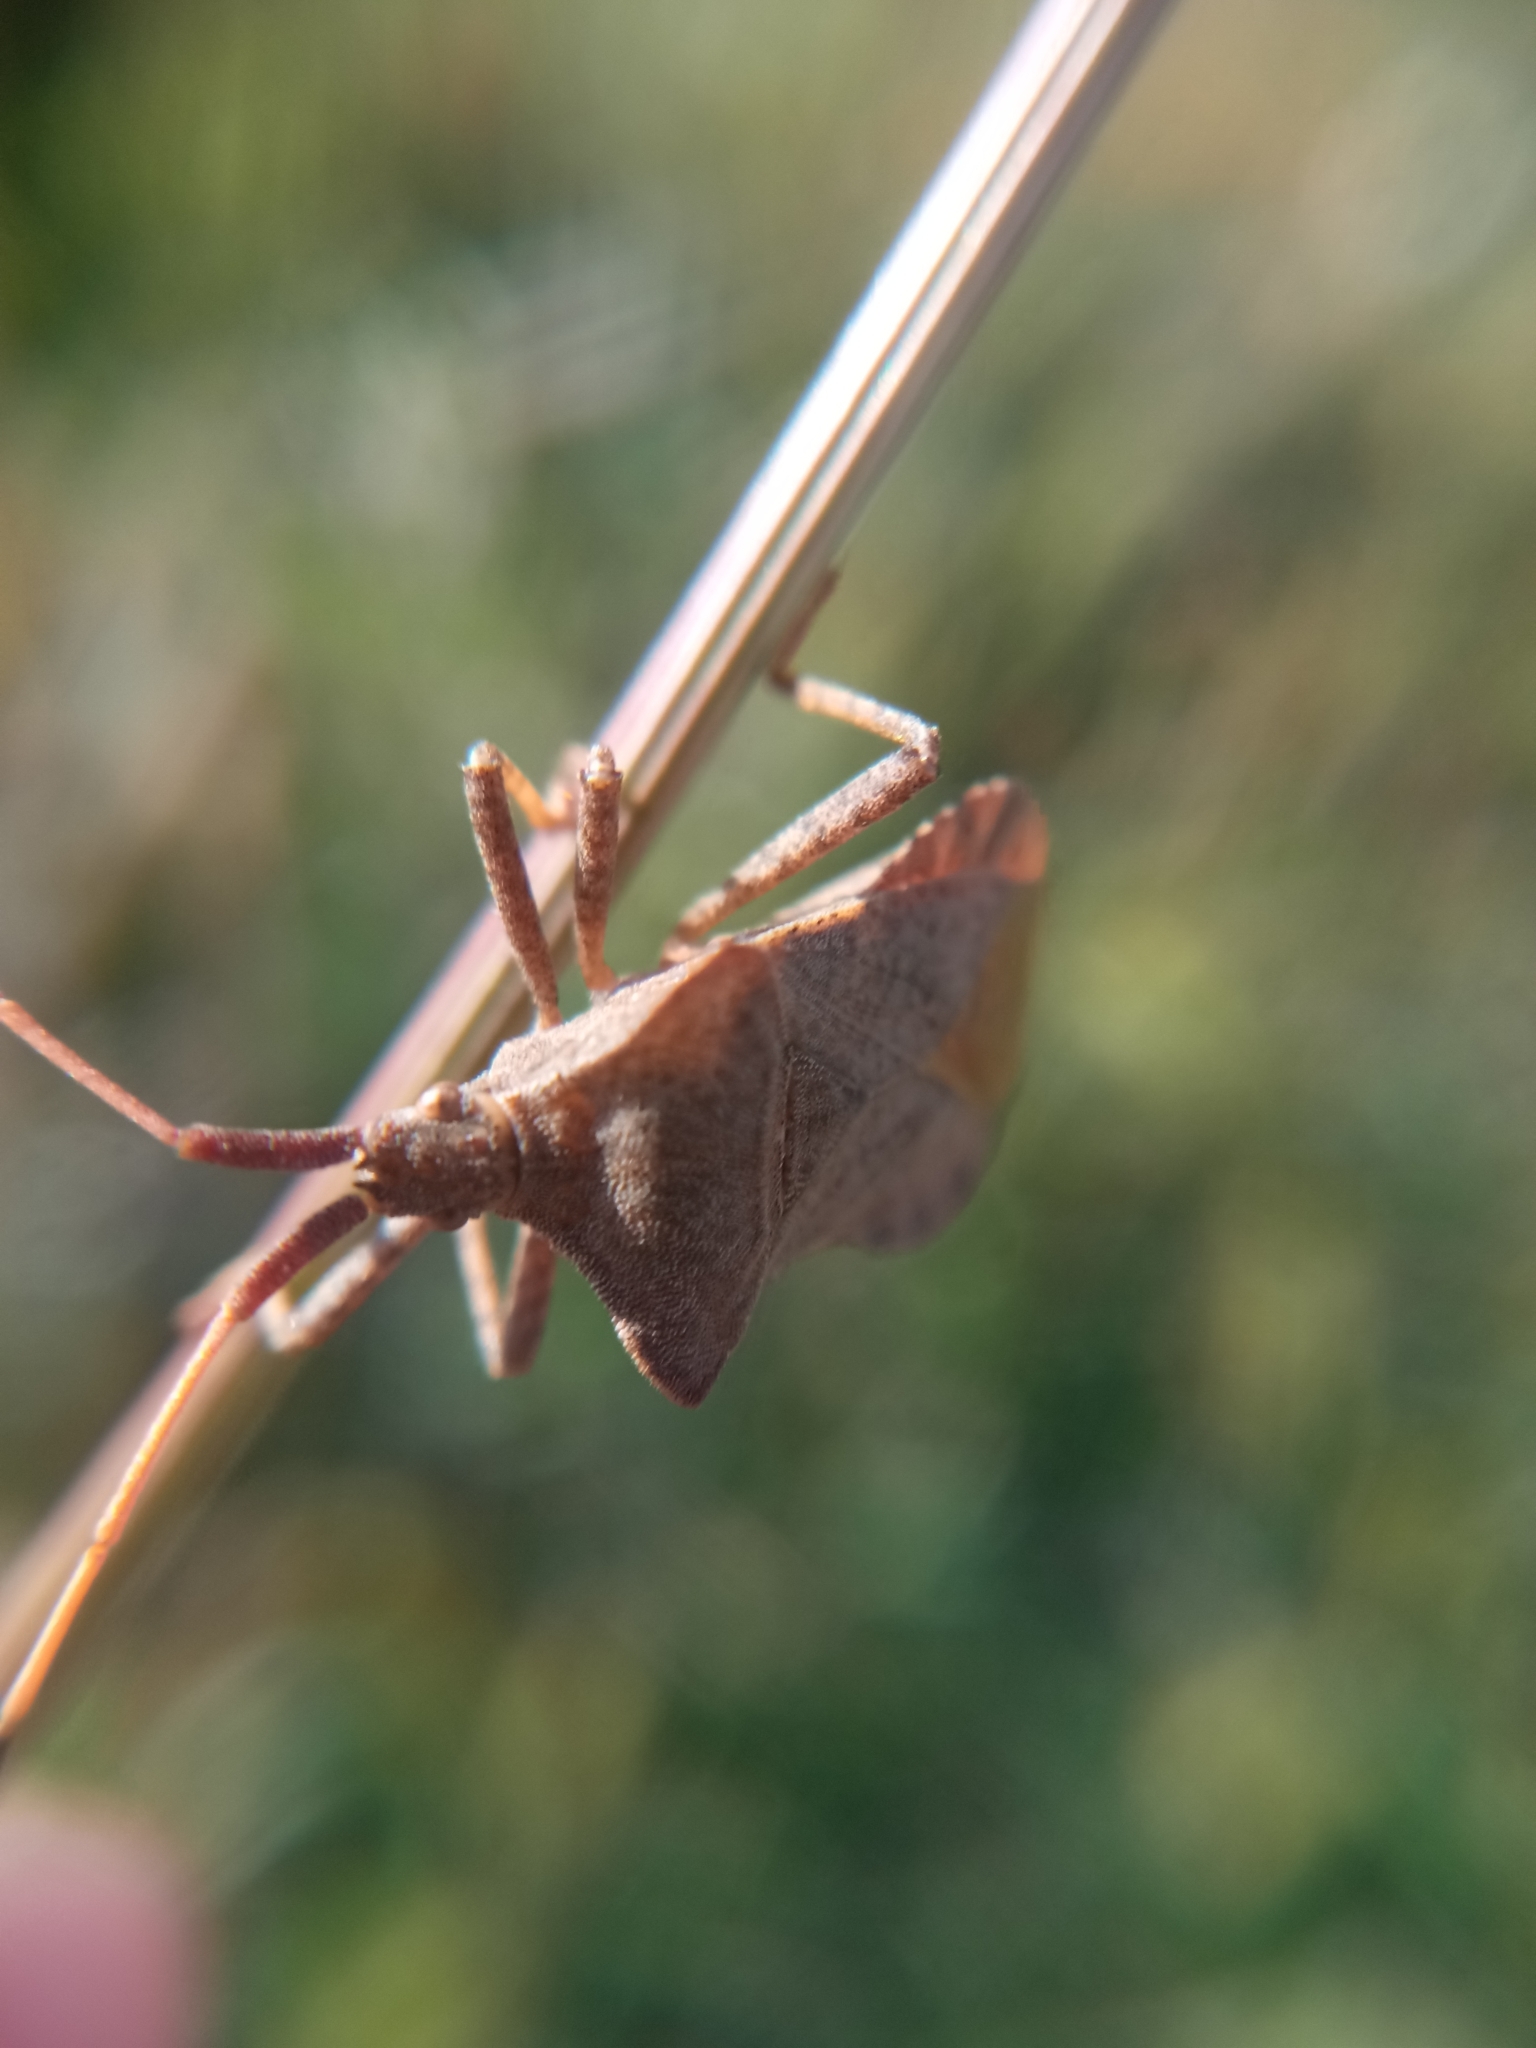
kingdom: Animalia
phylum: Arthropoda
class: Insecta
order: Hemiptera
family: Coreidae
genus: Coreus
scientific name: Coreus marginatus
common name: Dock bug
